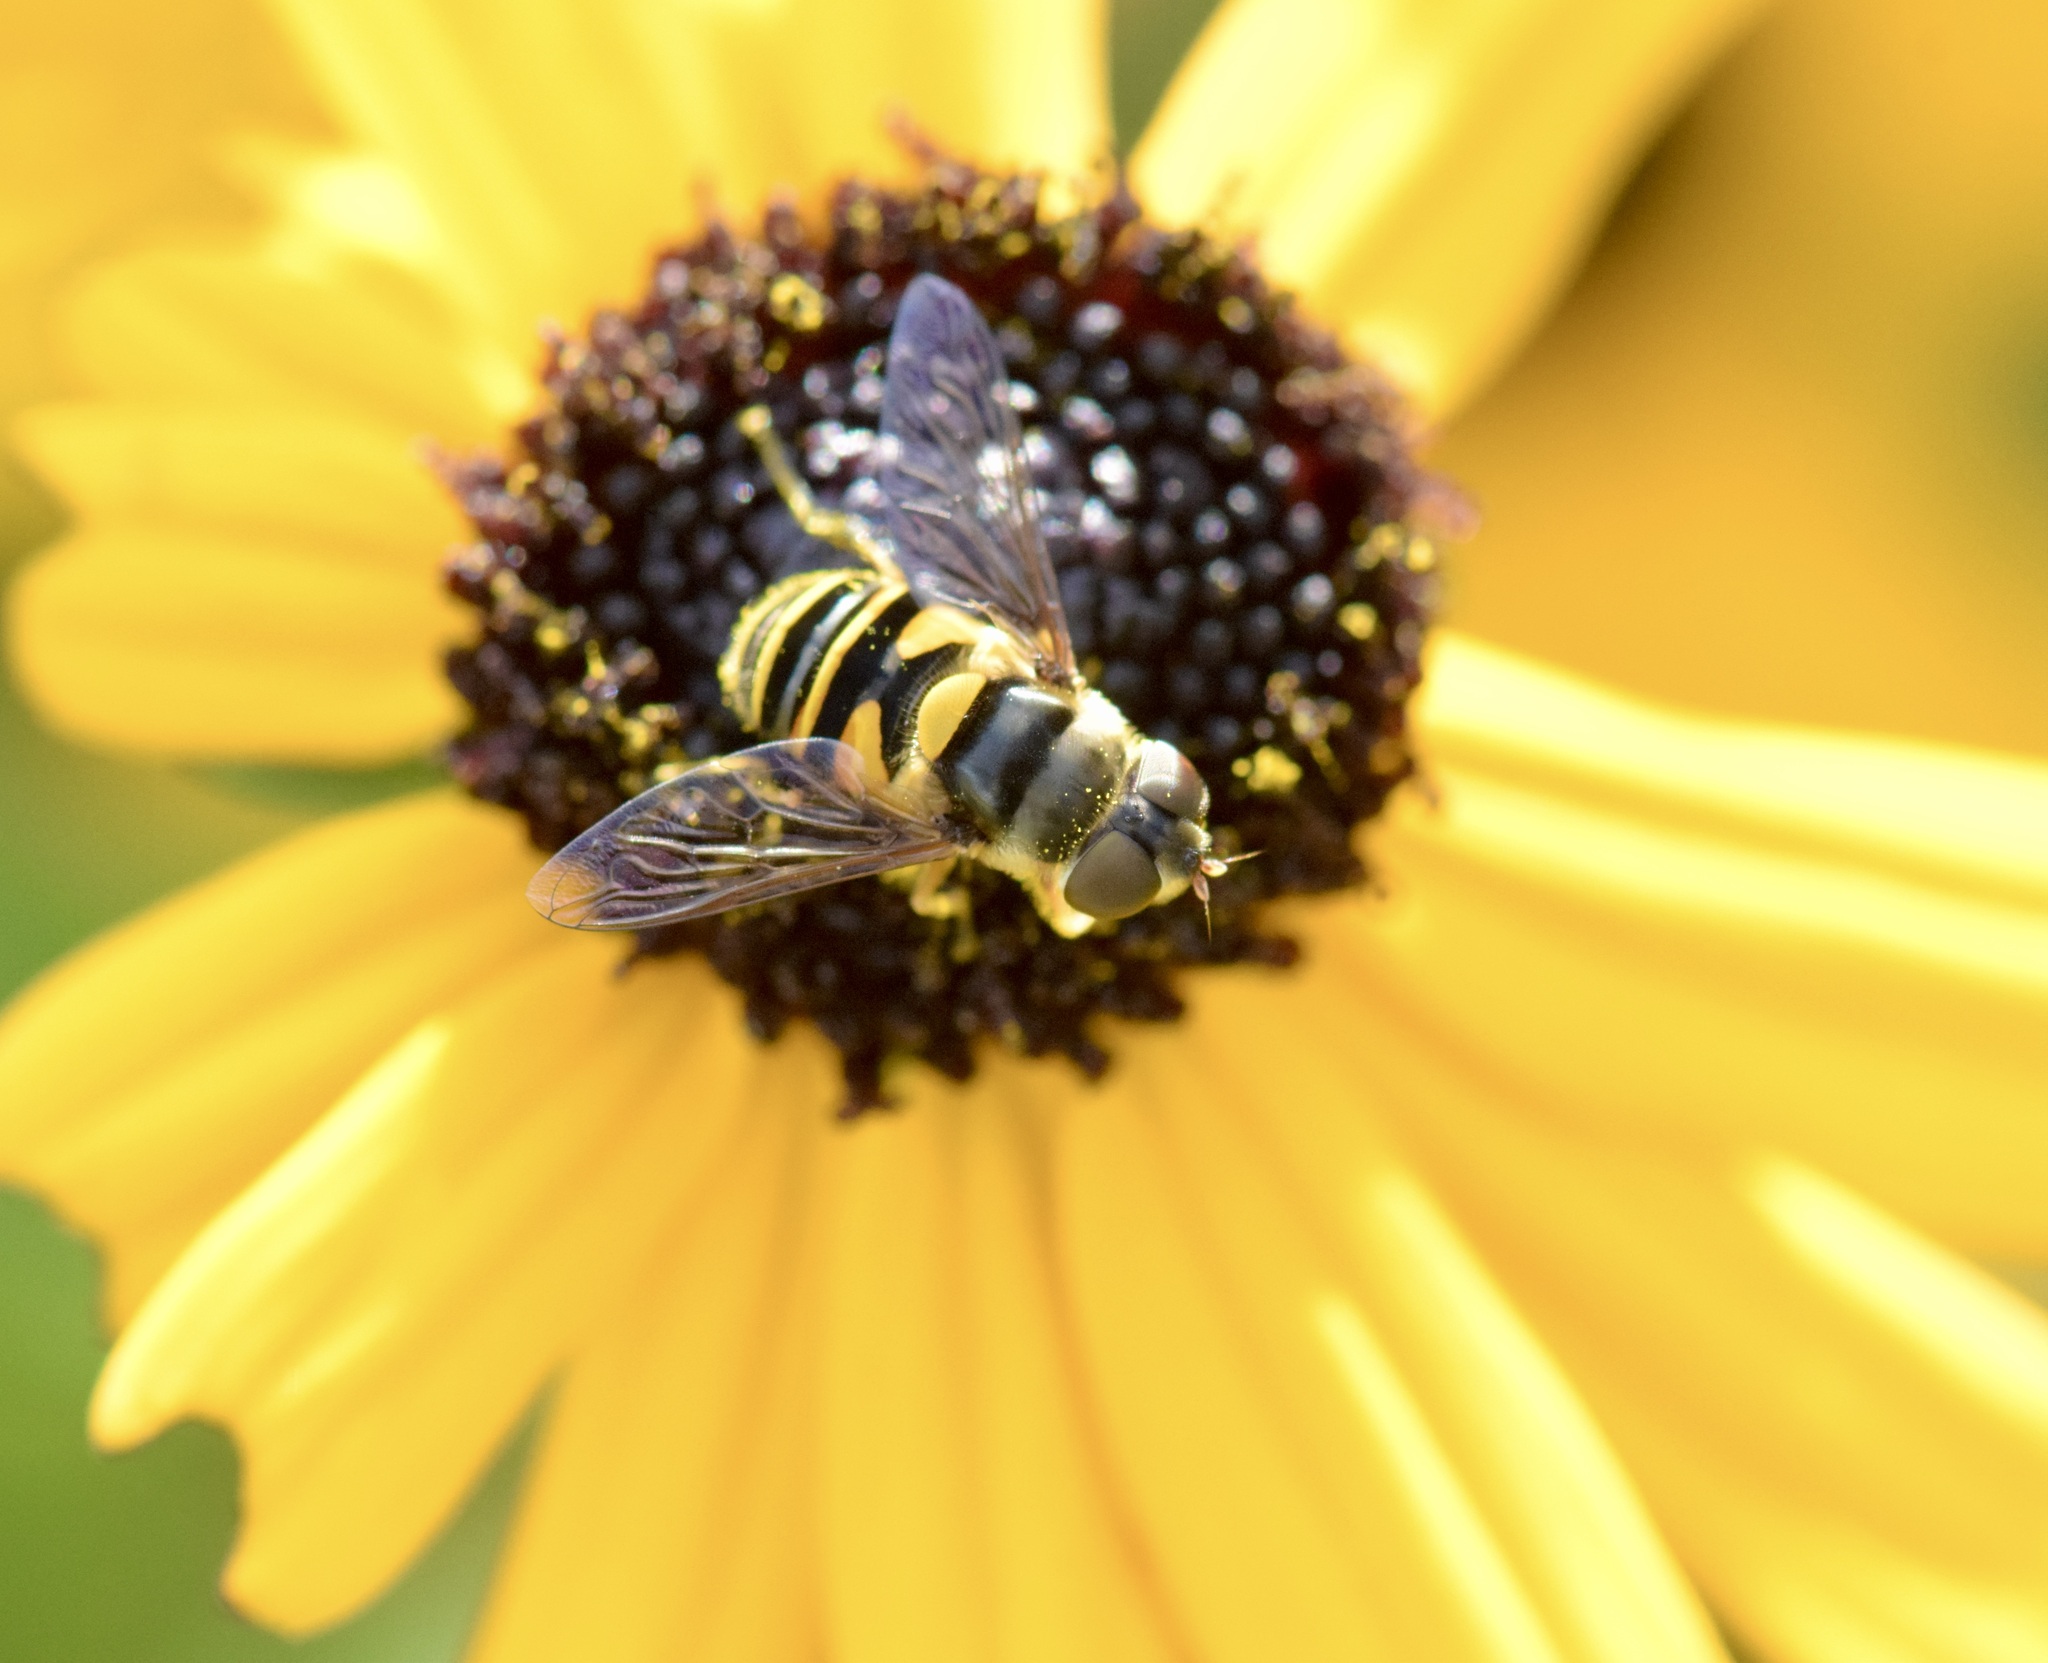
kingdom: Animalia
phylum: Arthropoda
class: Insecta
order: Diptera
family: Syrphidae
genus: Eristalis
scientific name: Eristalis transversa
